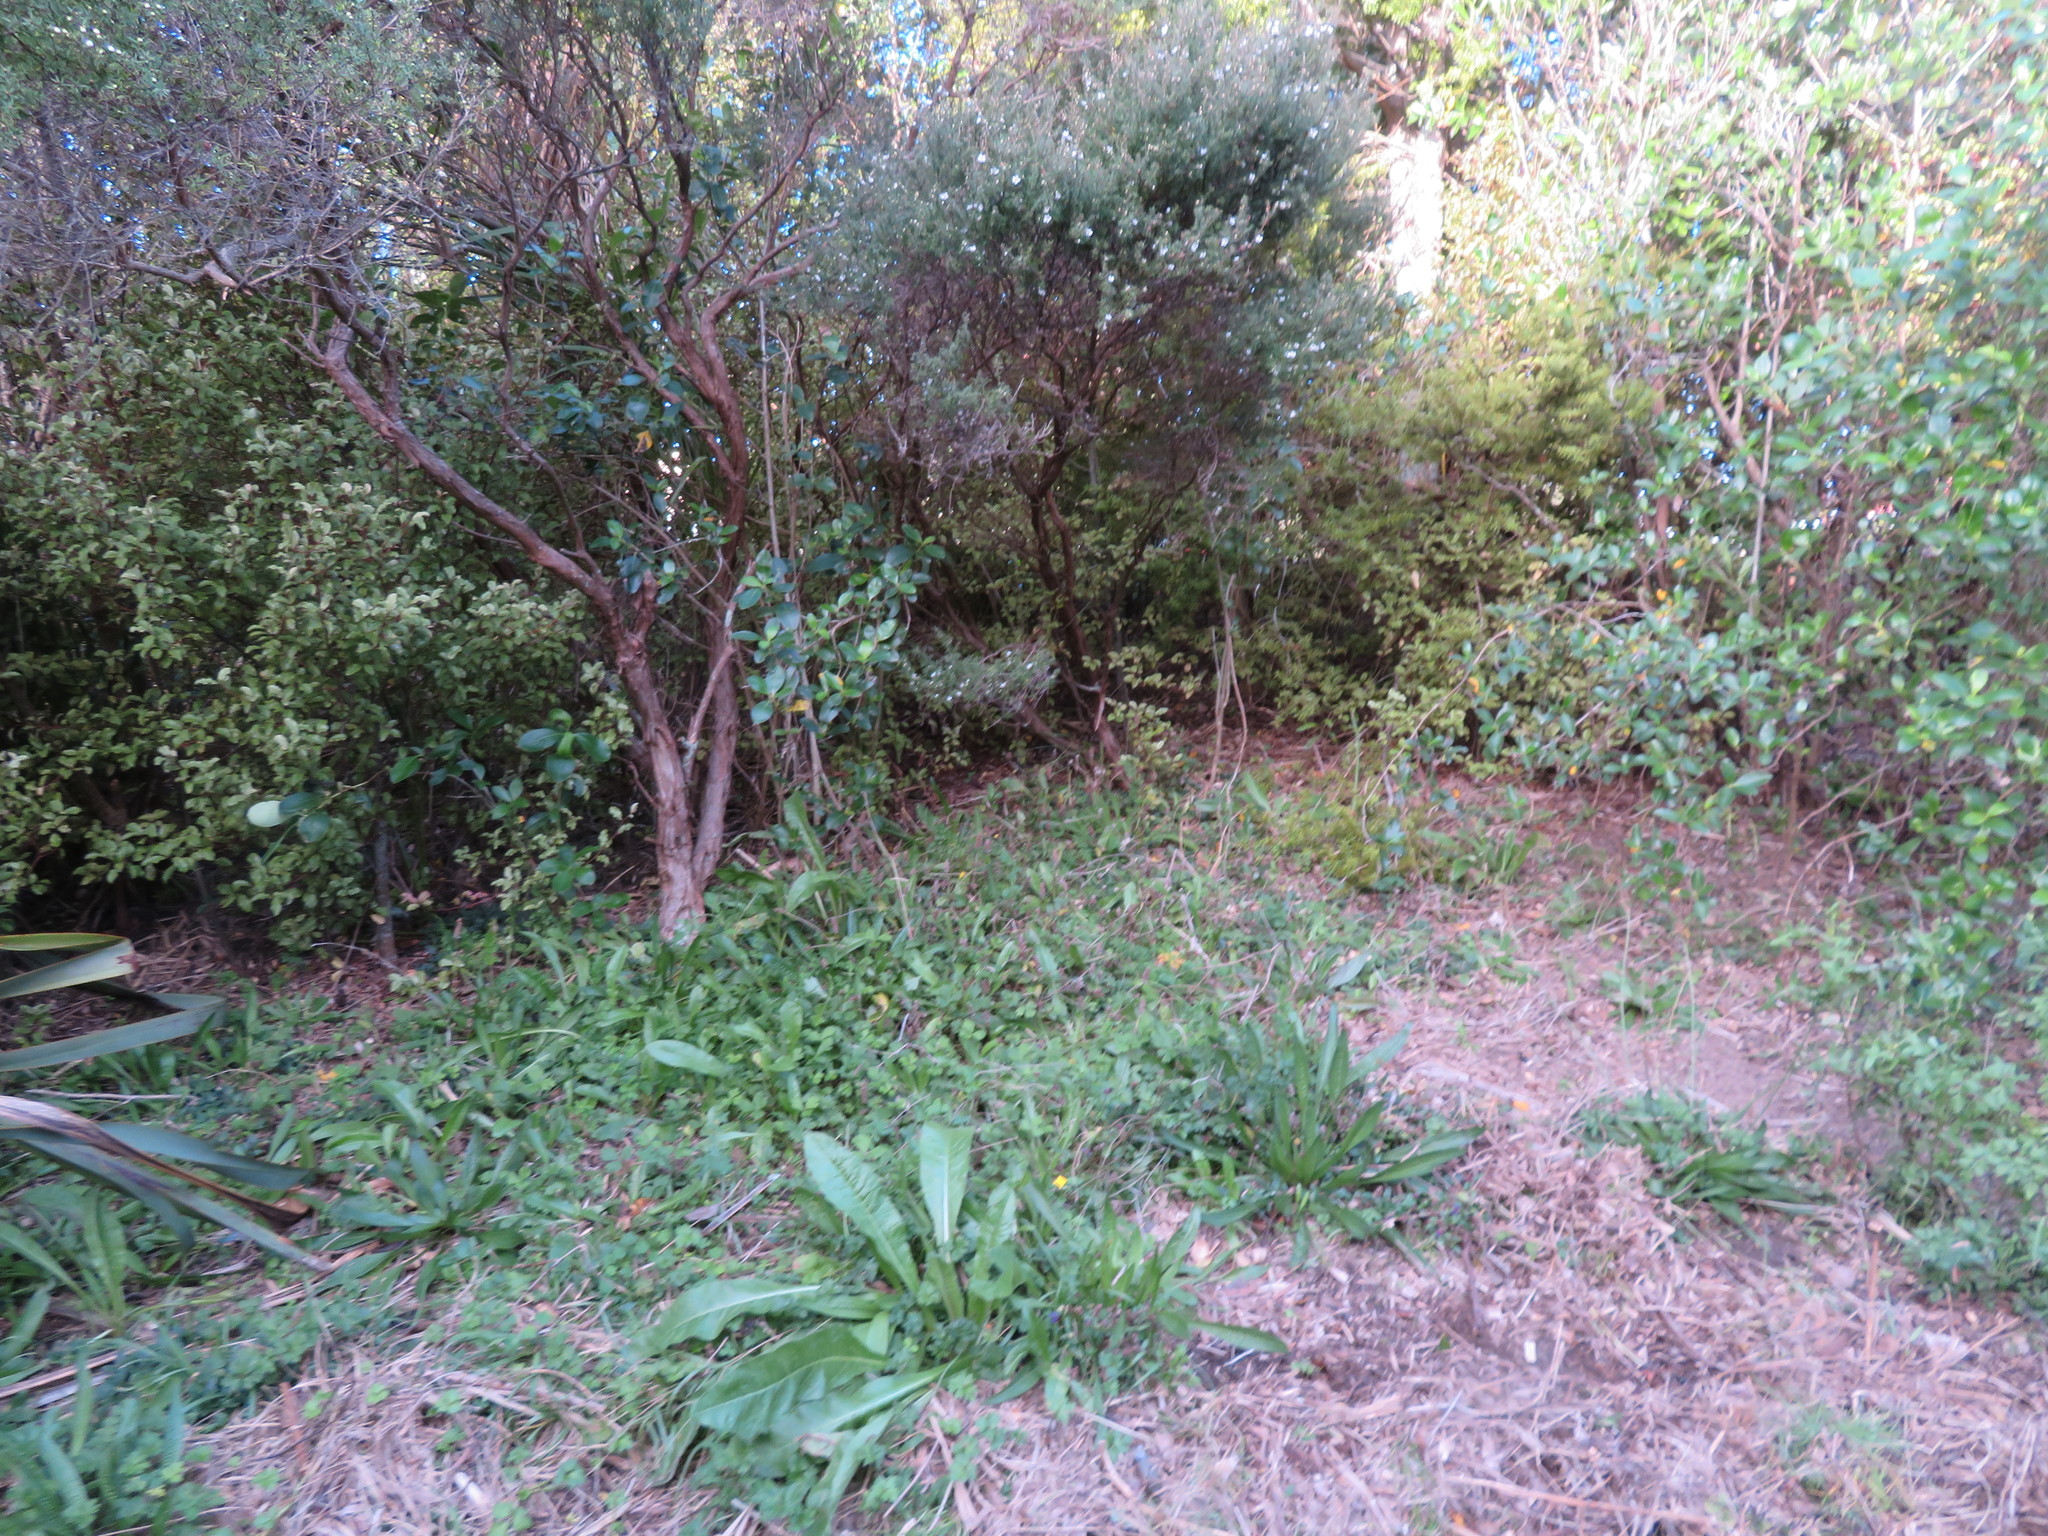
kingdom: Plantae
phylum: Tracheophyta
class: Magnoliopsida
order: Asterales
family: Asteraceae
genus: Helminthotheca
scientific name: Helminthotheca echioides
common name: Ox-tongue
